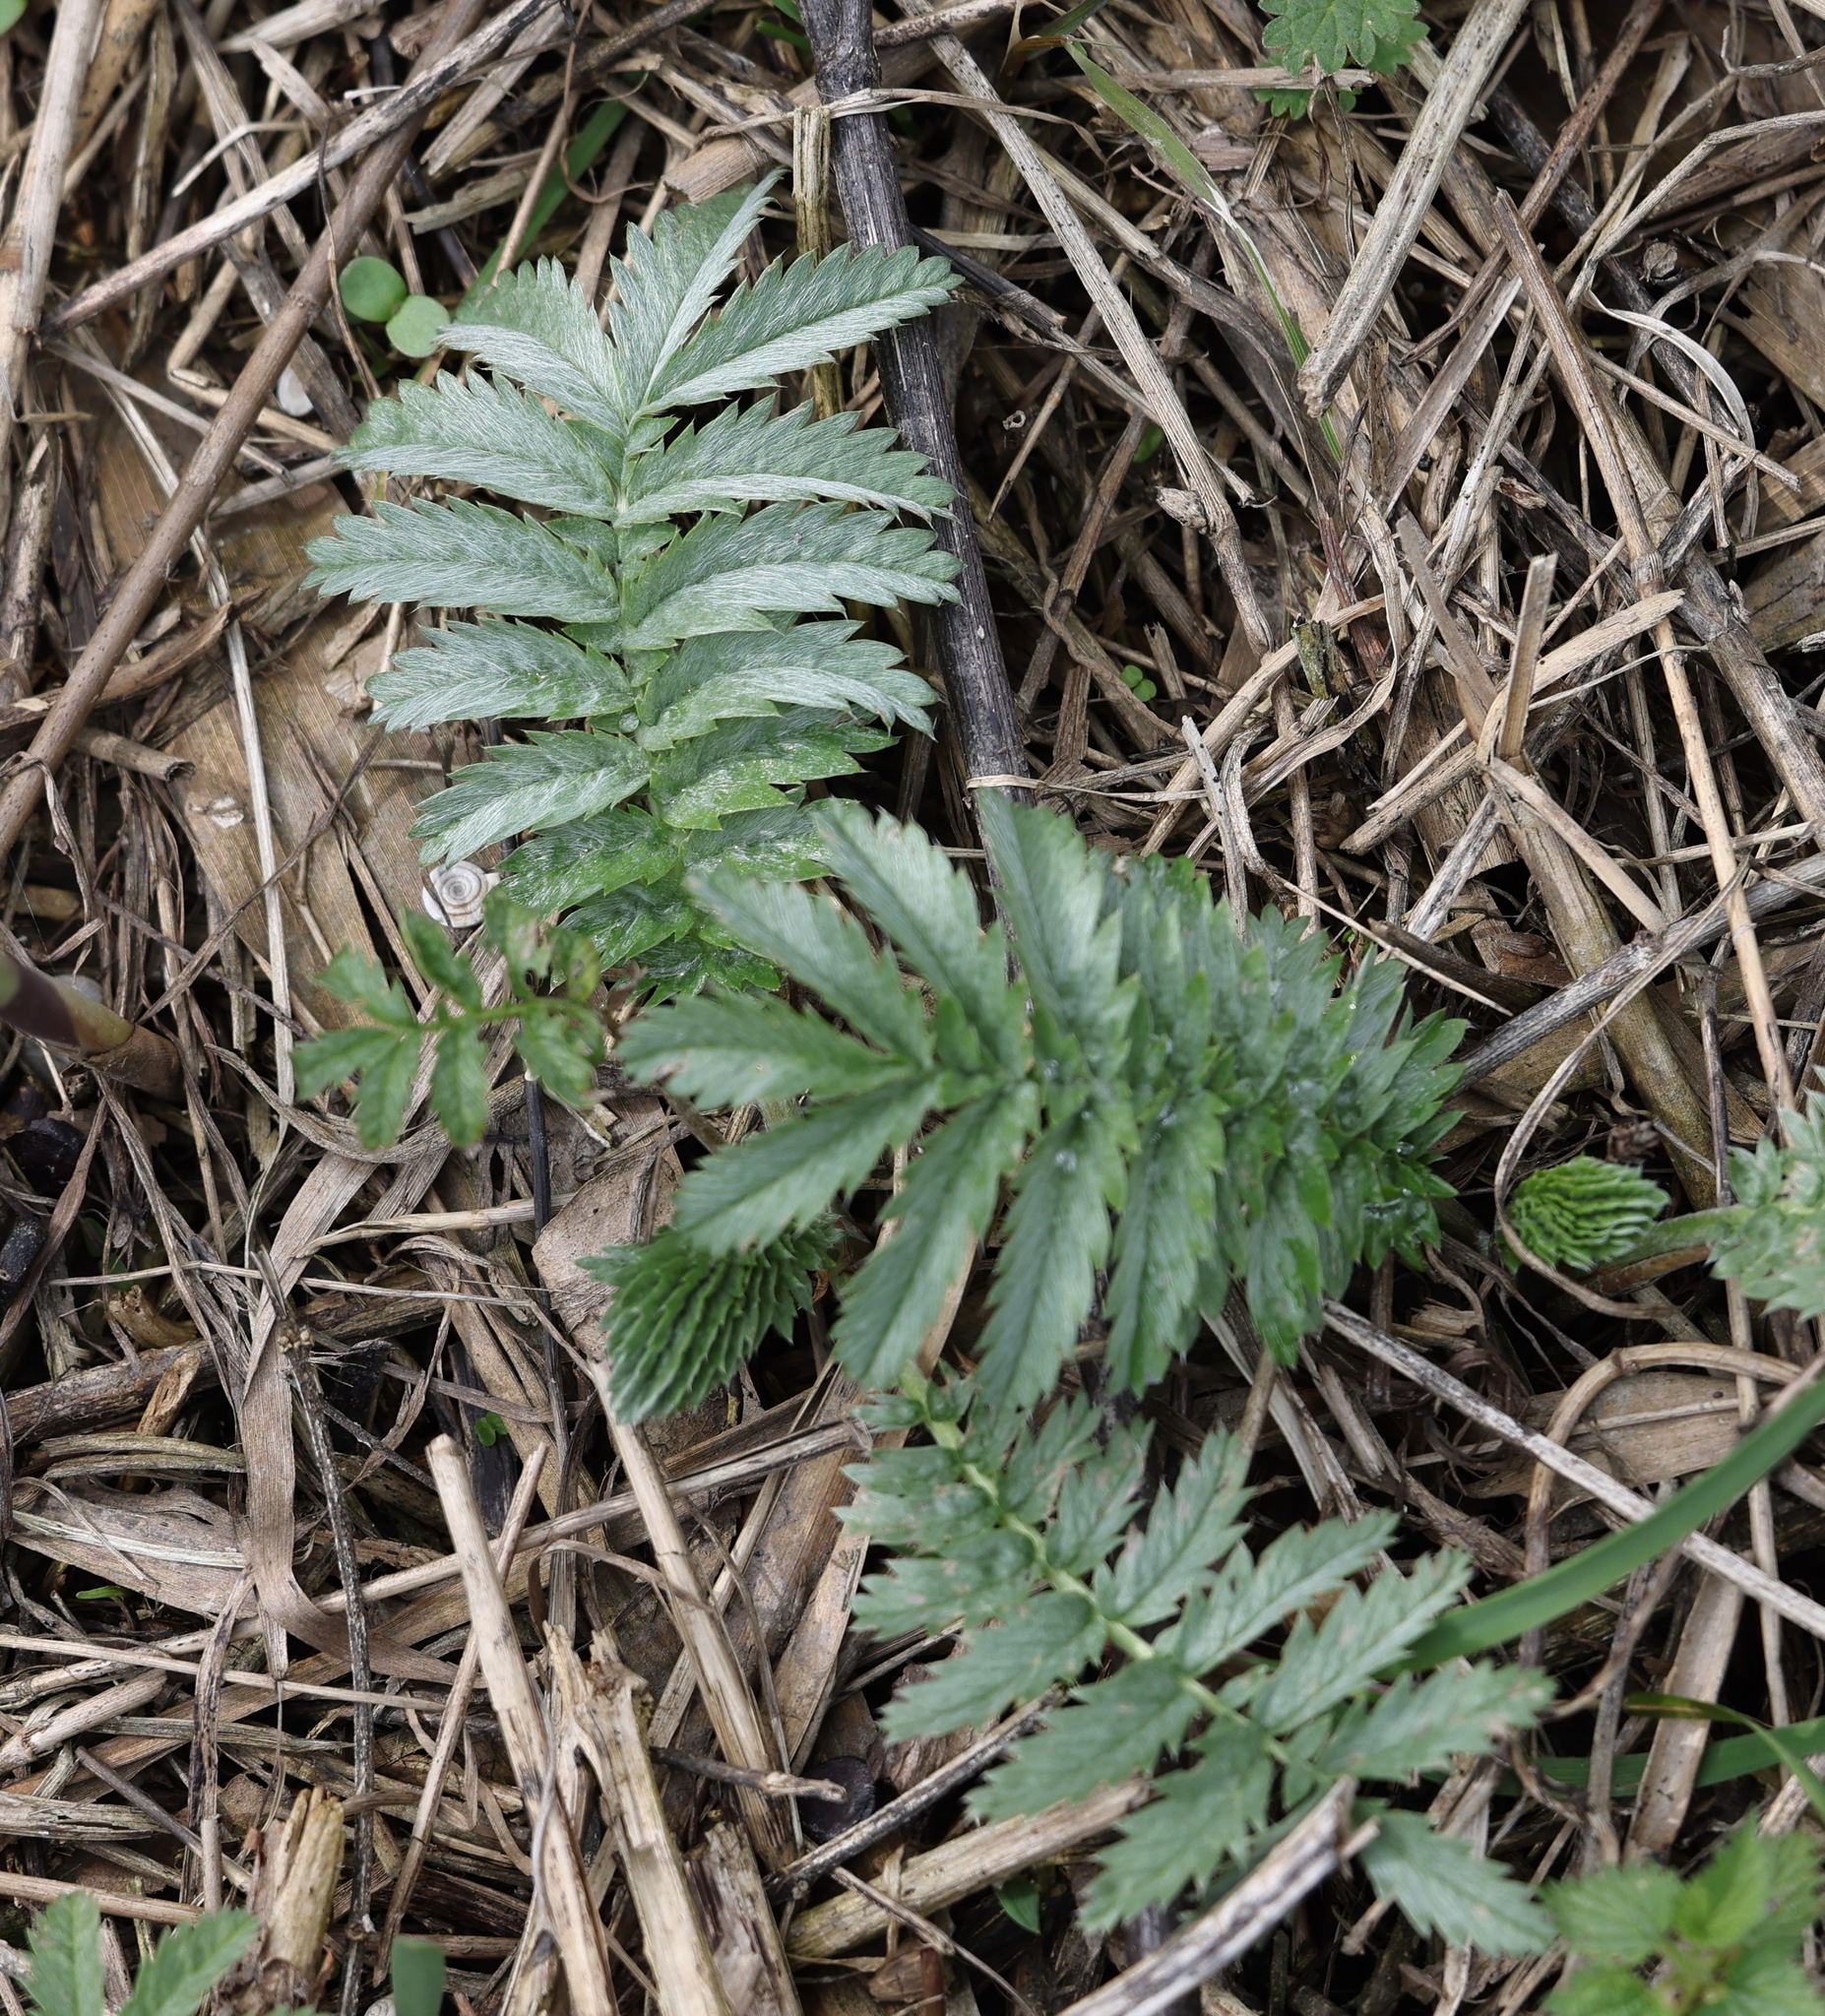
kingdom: Plantae
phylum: Tracheophyta
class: Magnoliopsida
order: Rosales
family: Rosaceae
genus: Argentina
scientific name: Argentina anserina
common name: Common silverweed
